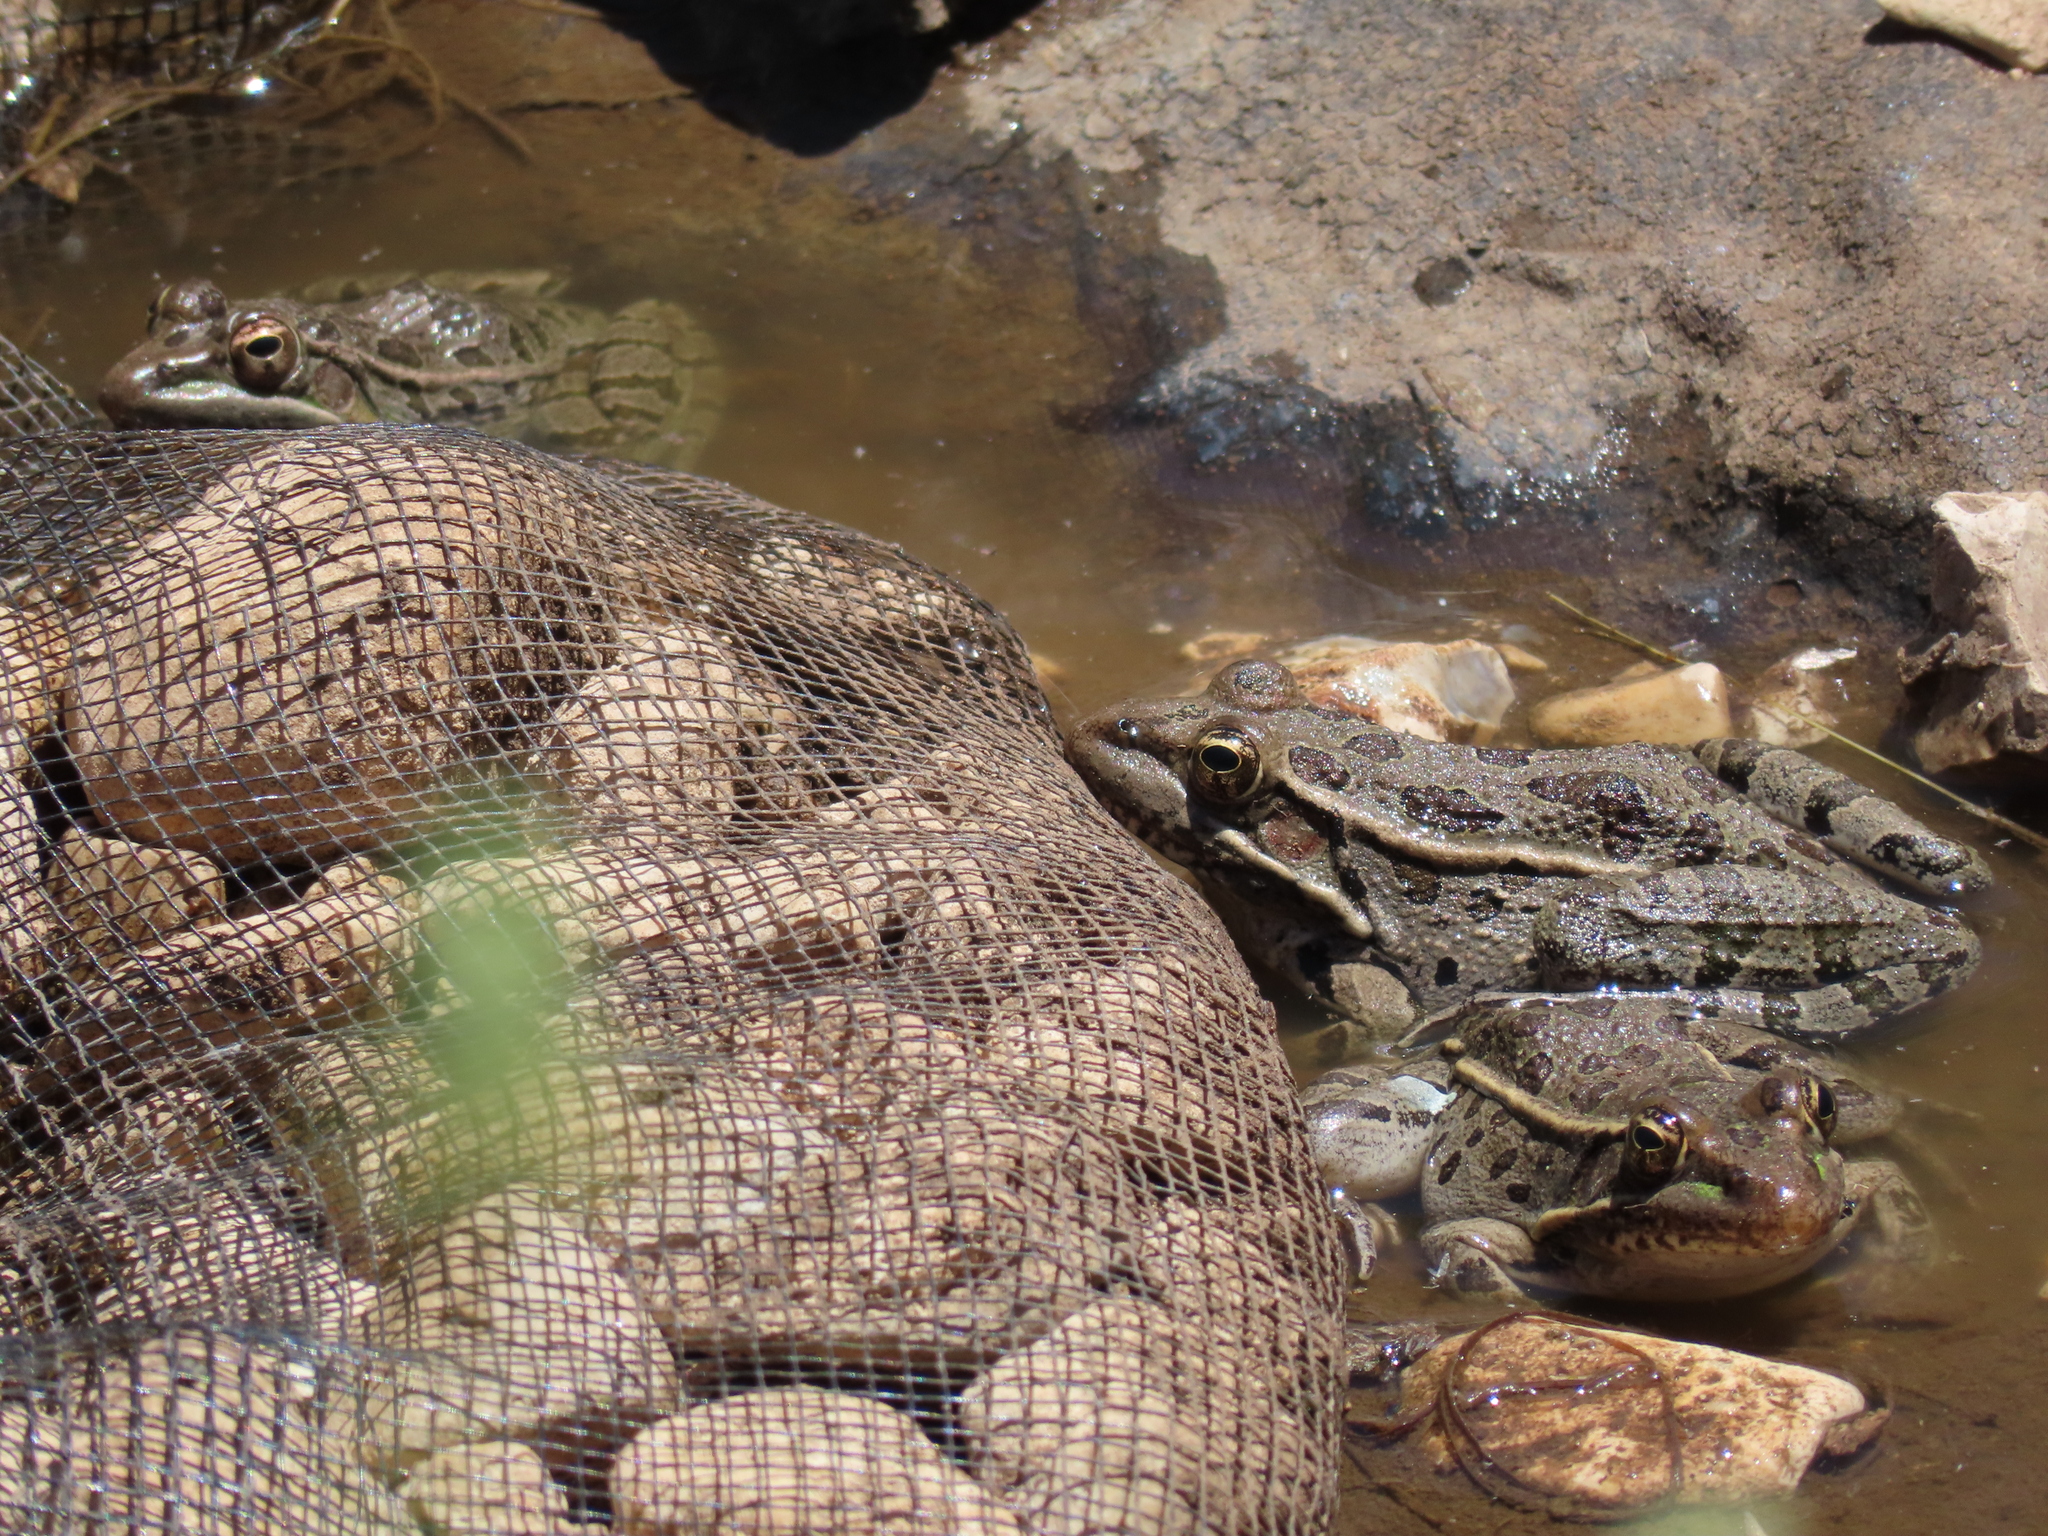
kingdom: Animalia
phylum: Chordata
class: Amphibia
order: Anura
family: Ranidae
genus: Lithobates
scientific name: Lithobates berlandieri
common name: Rio grande leopard frog
